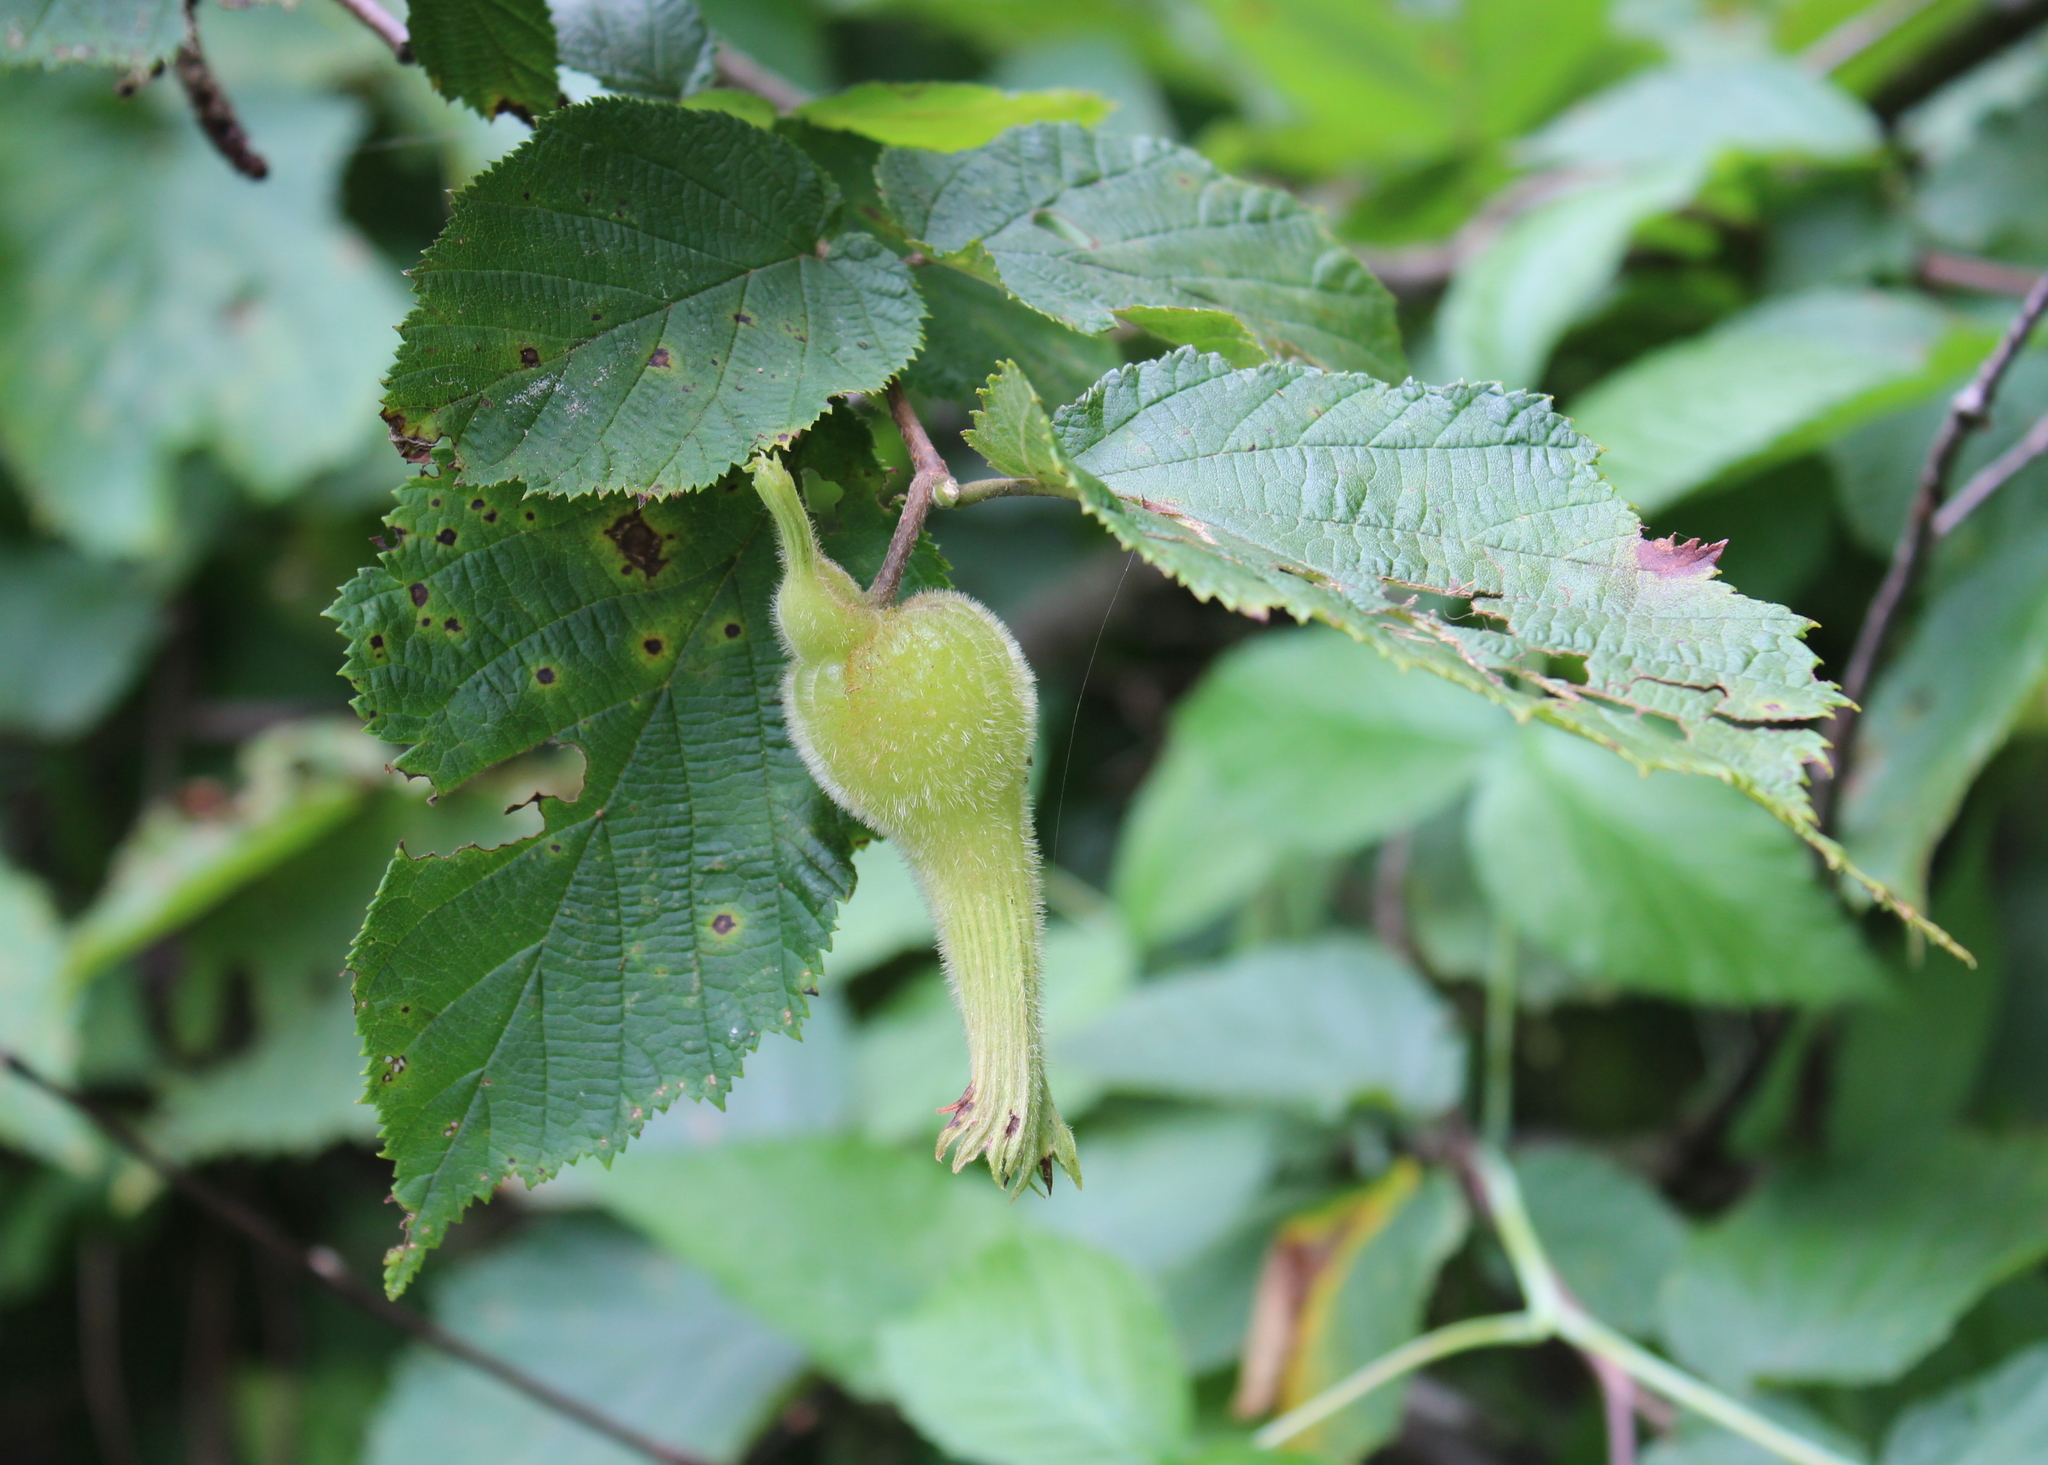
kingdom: Plantae
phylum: Tracheophyta
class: Magnoliopsida
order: Fagales
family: Betulaceae
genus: Corylus
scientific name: Corylus cornuta
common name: Beaked hazel
